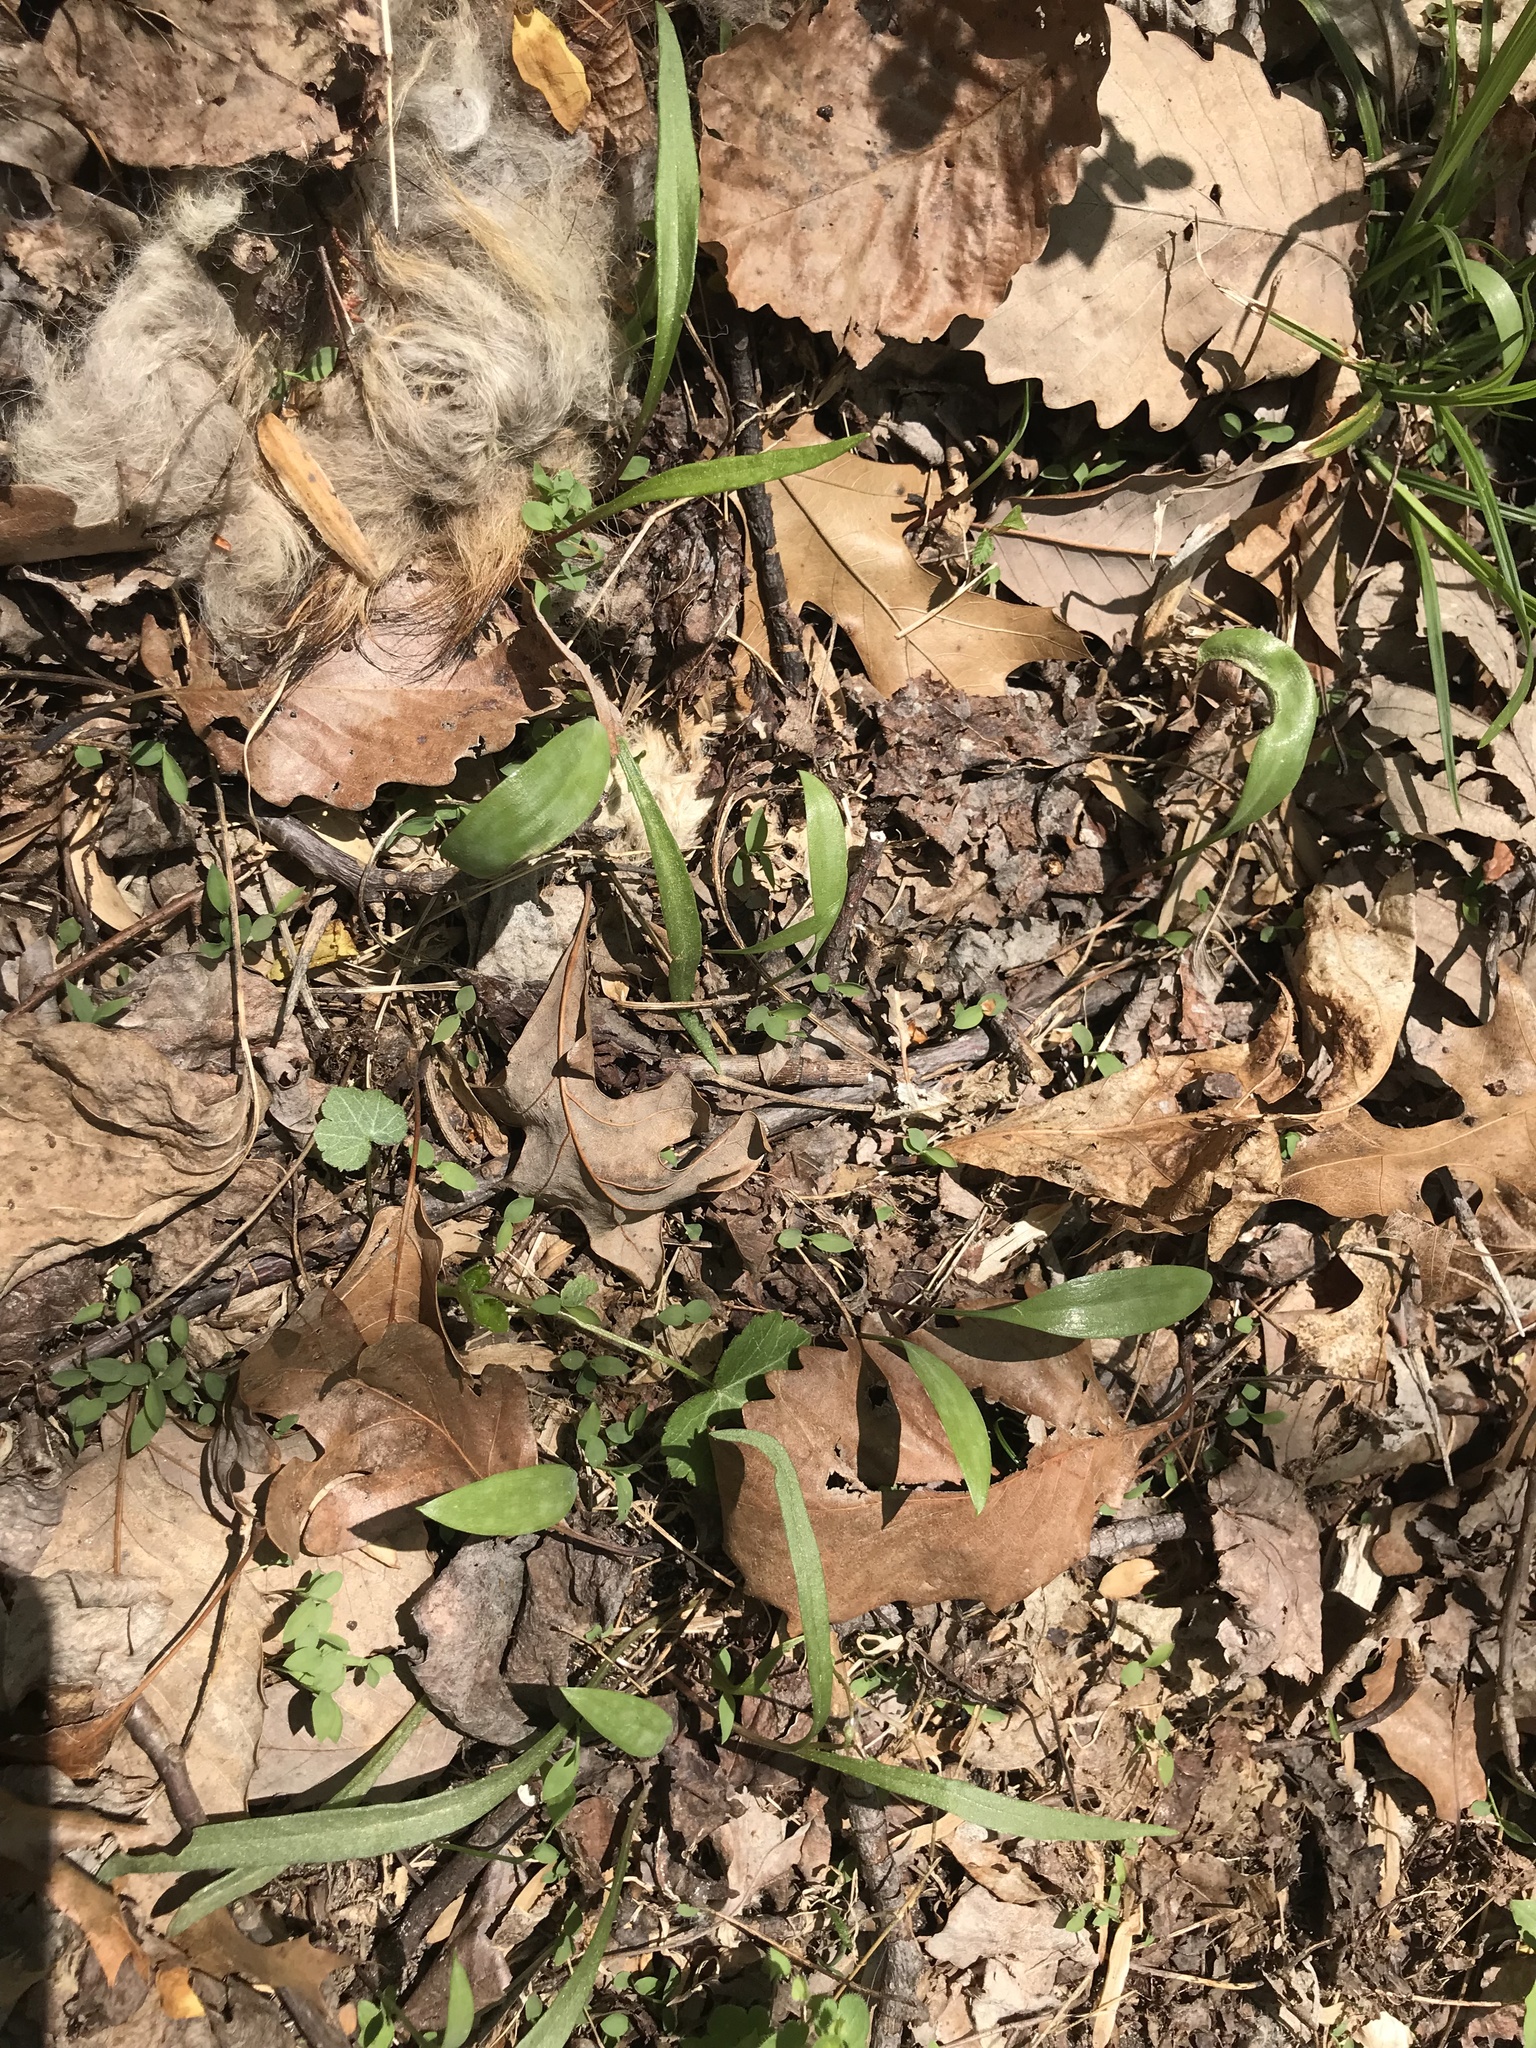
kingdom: Plantae
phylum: Tracheophyta
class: Liliopsida
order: Liliales
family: Liliaceae
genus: Erythronium
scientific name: Erythronium americanum
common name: Yellow adder's-tongue
